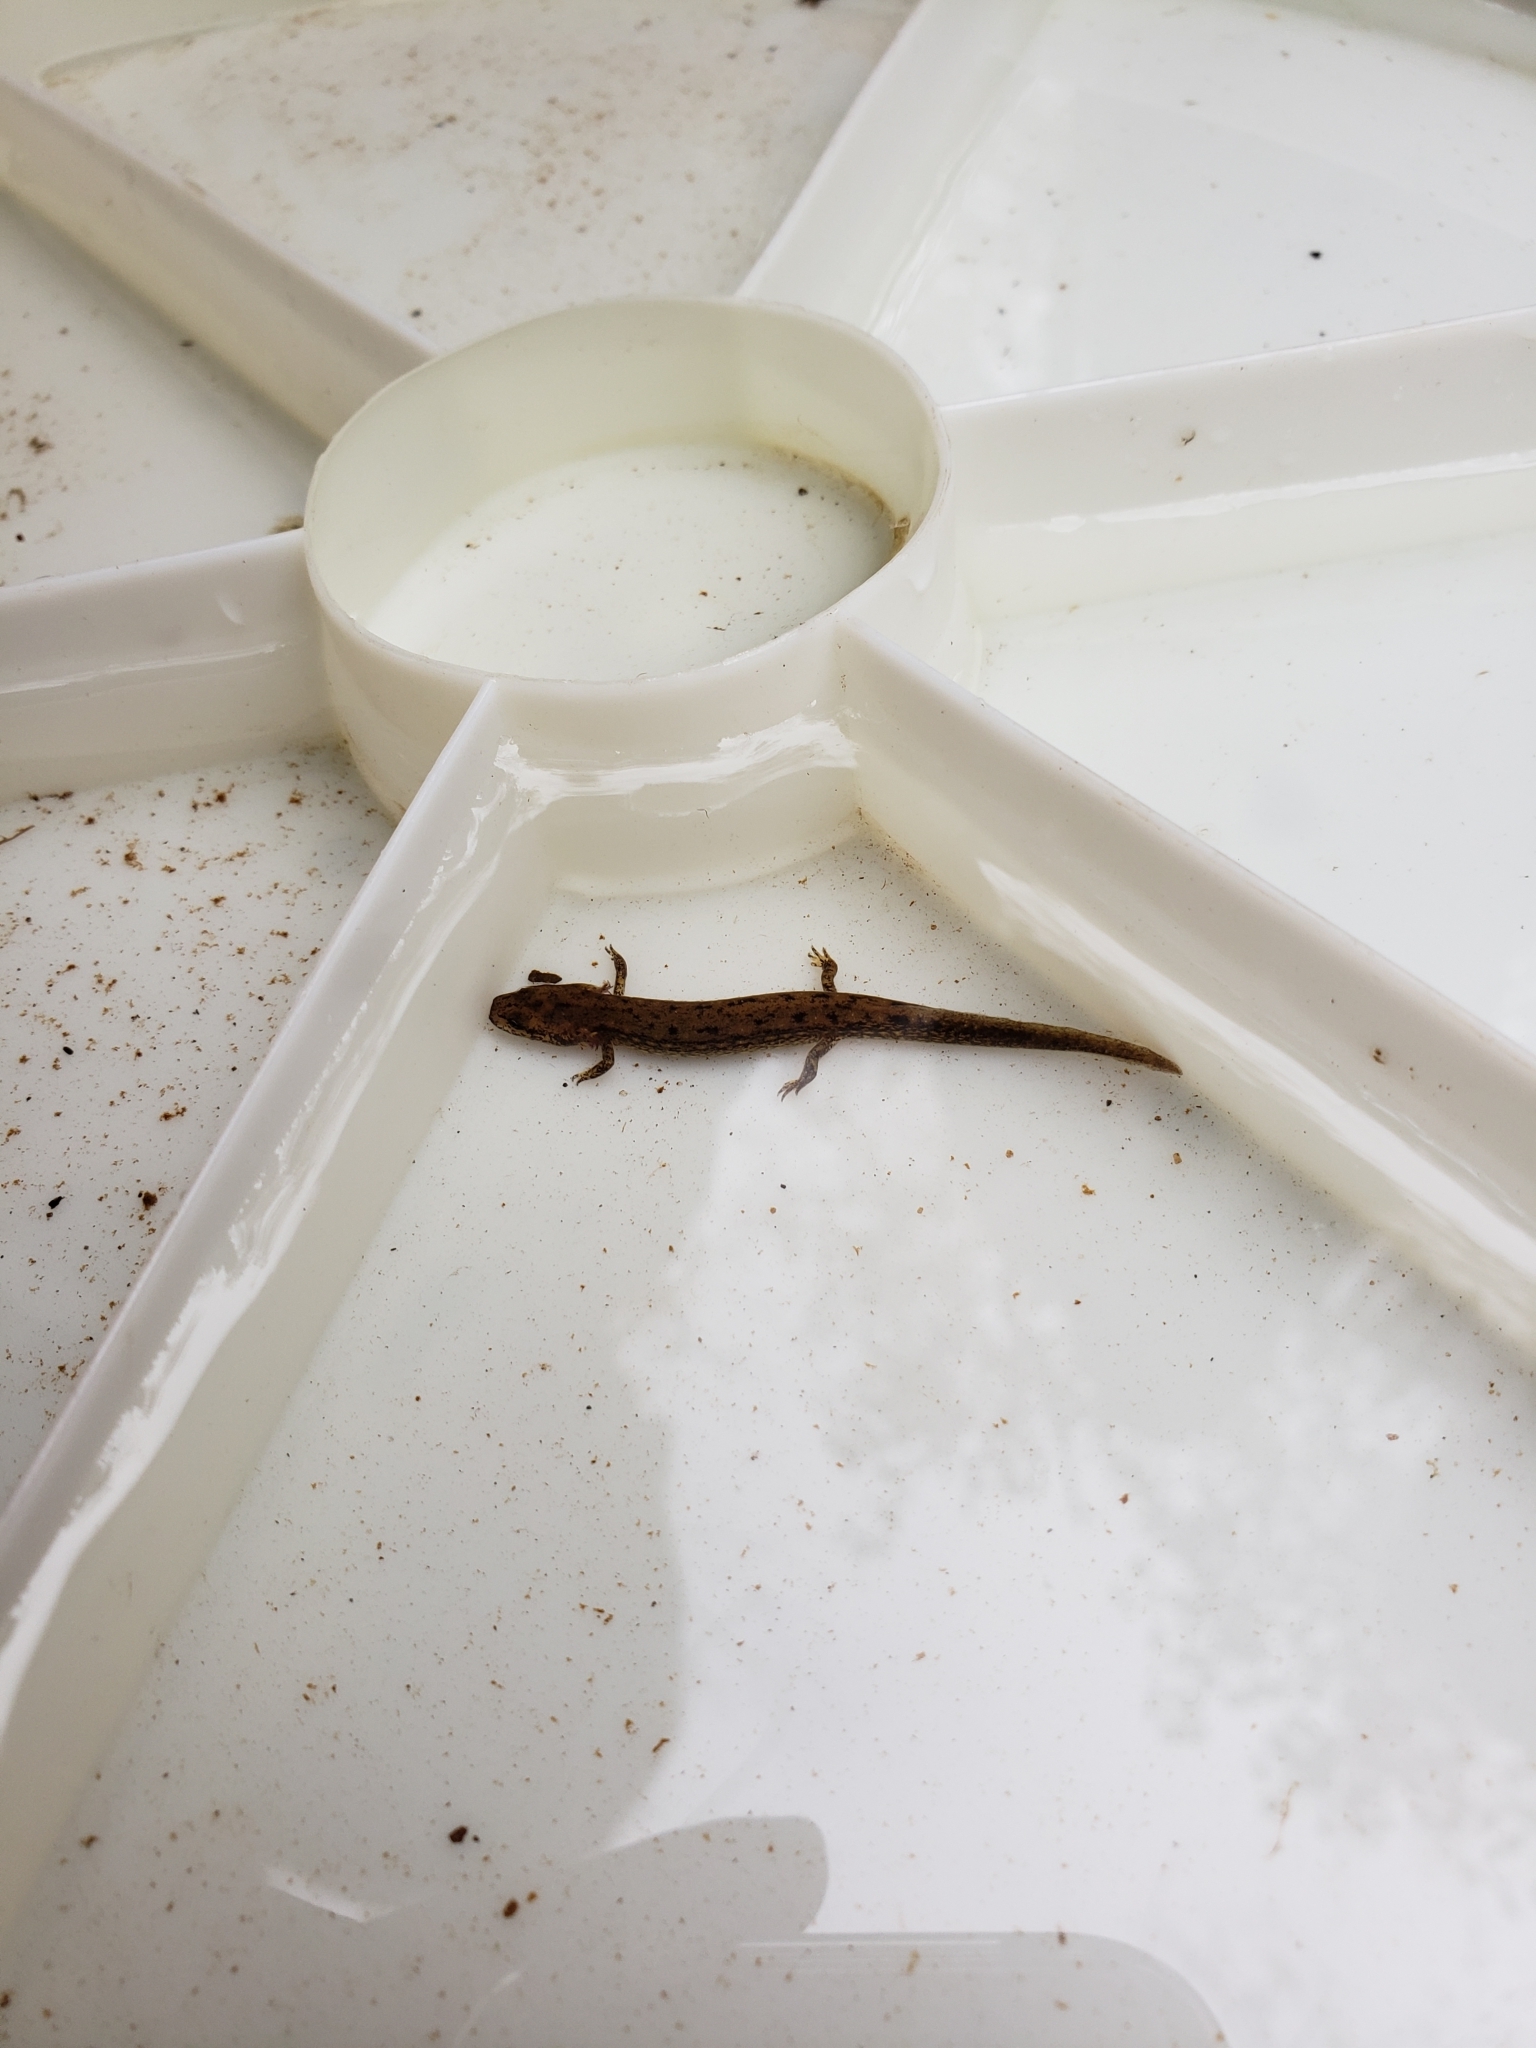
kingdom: Animalia
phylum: Chordata
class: Amphibia
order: Caudata
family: Plethodontidae
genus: Eurycea
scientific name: Eurycea bislineata
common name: Northern two-lined salamander
